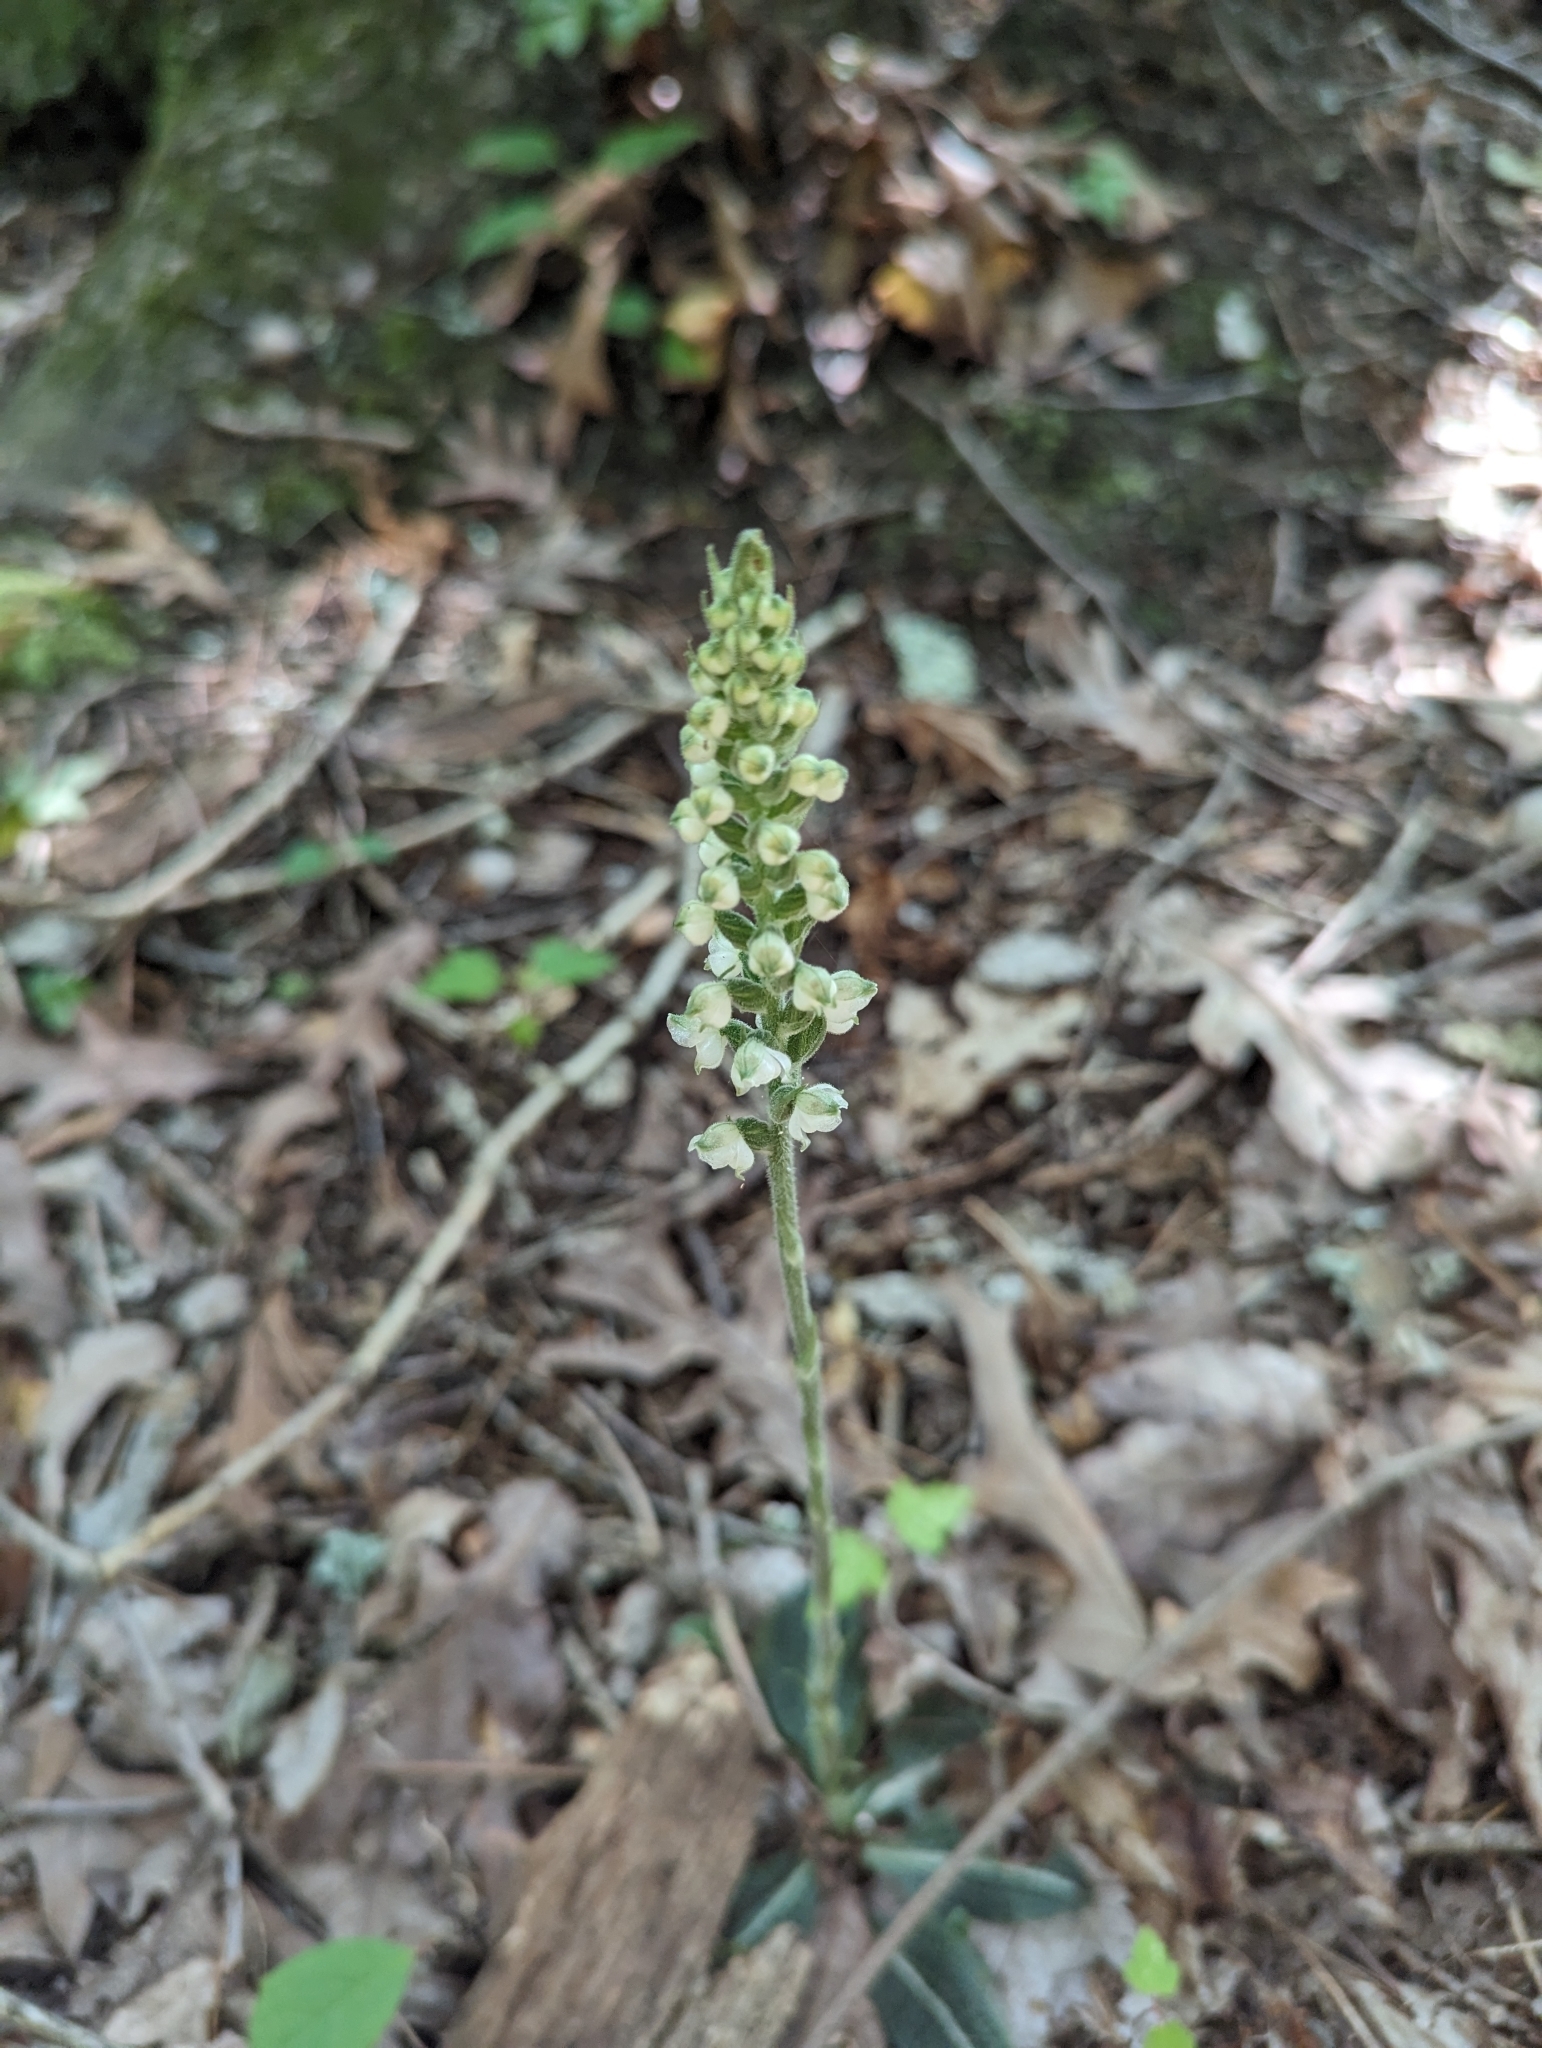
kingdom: Plantae
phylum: Tracheophyta
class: Liliopsida
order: Asparagales
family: Orchidaceae
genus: Goodyera
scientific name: Goodyera pubescens
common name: Downy rattlesnake-plantain
